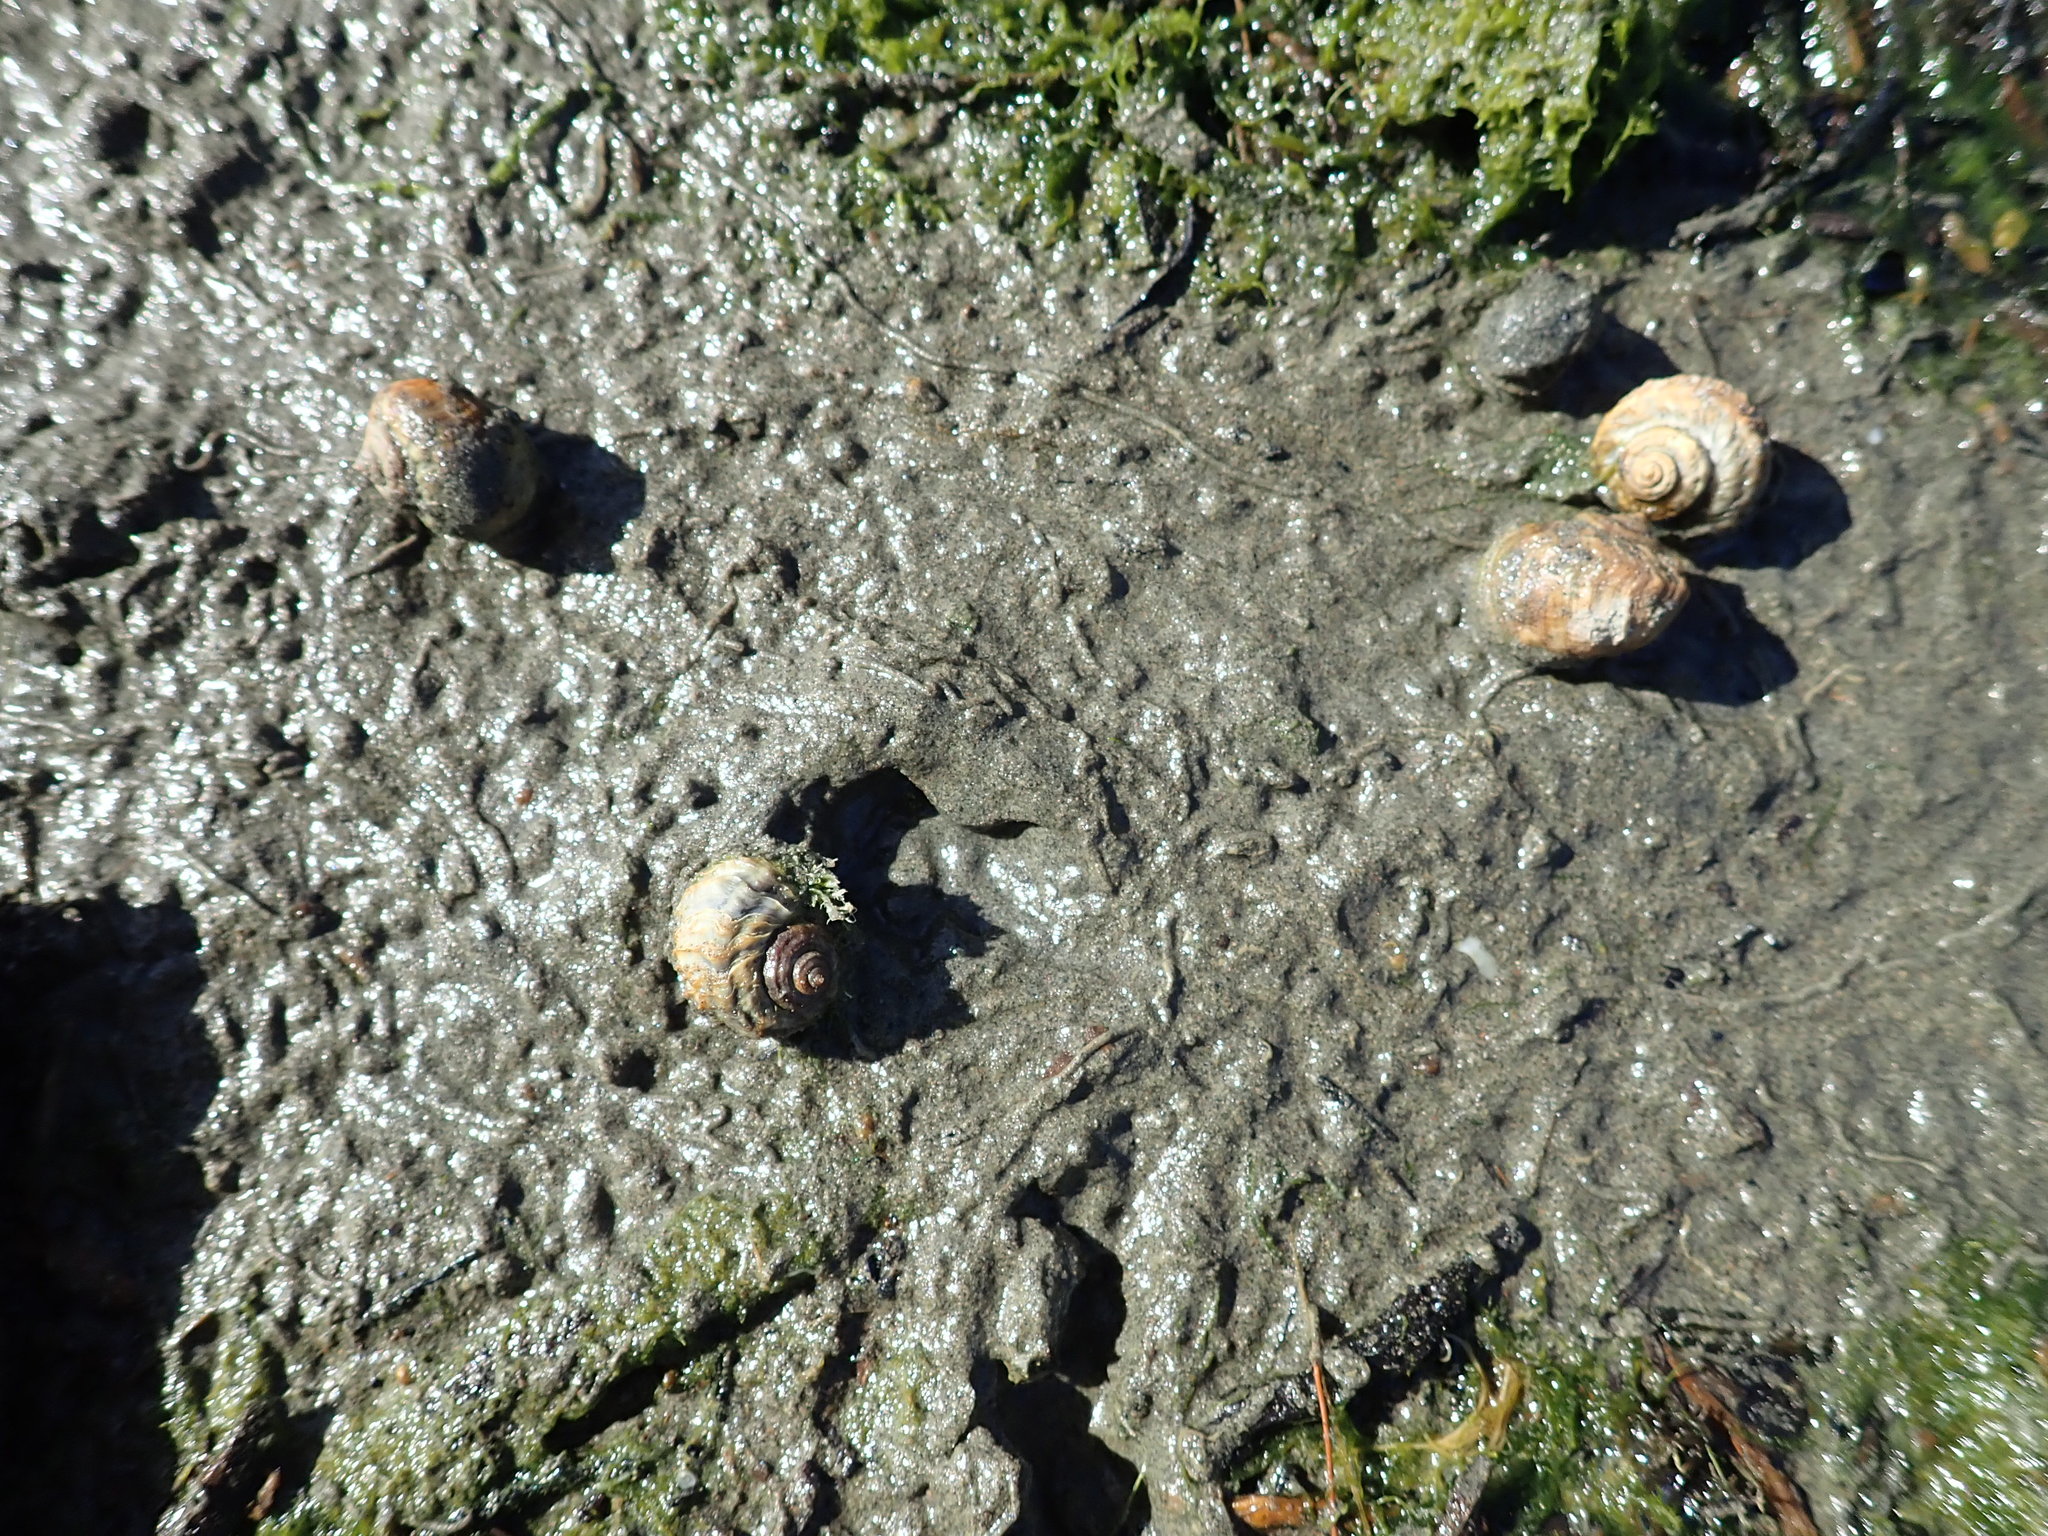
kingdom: Animalia
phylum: Mollusca
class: Gastropoda
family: Amphibolidae
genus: Amphibola
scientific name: Amphibola crenata
